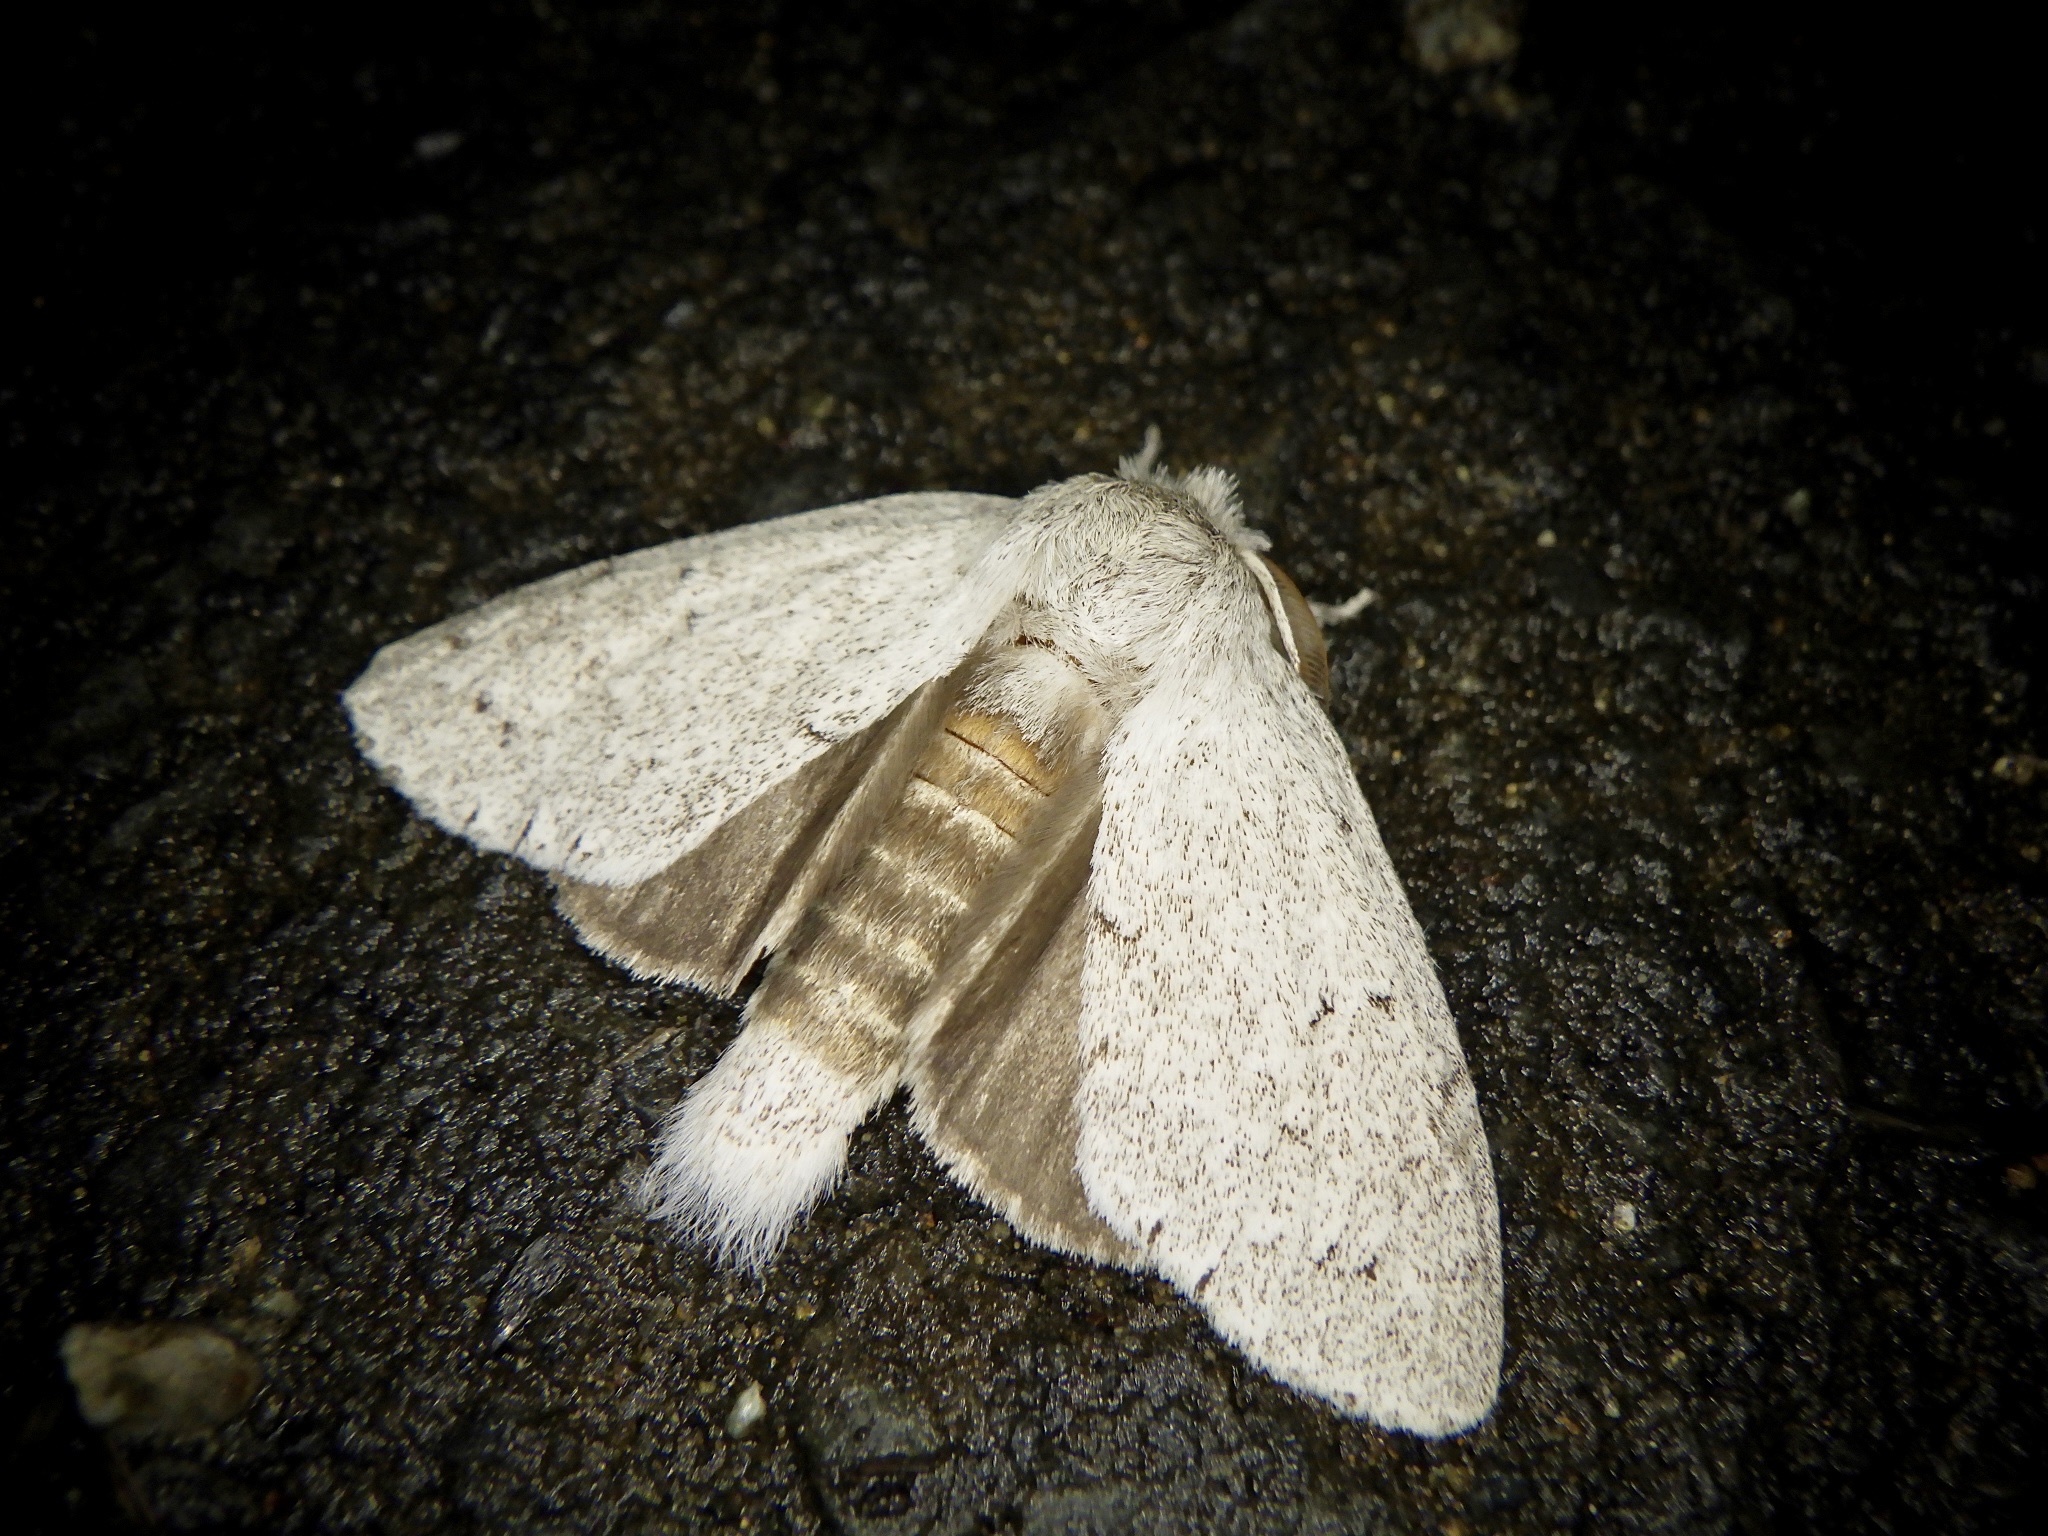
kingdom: Animalia
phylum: Arthropoda
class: Insecta
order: Lepidoptera
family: Notodontidae
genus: Cnethodonta
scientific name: Cnethodonta grisescens
